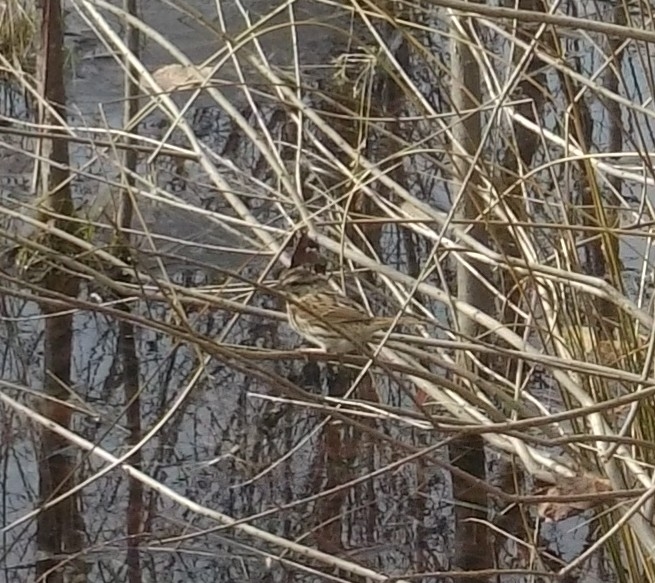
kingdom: Animalia
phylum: Chordata
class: Aves
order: Passeriformes
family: Passerellidae
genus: Melospiza
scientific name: Melospiza melodia
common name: Song sparrow
